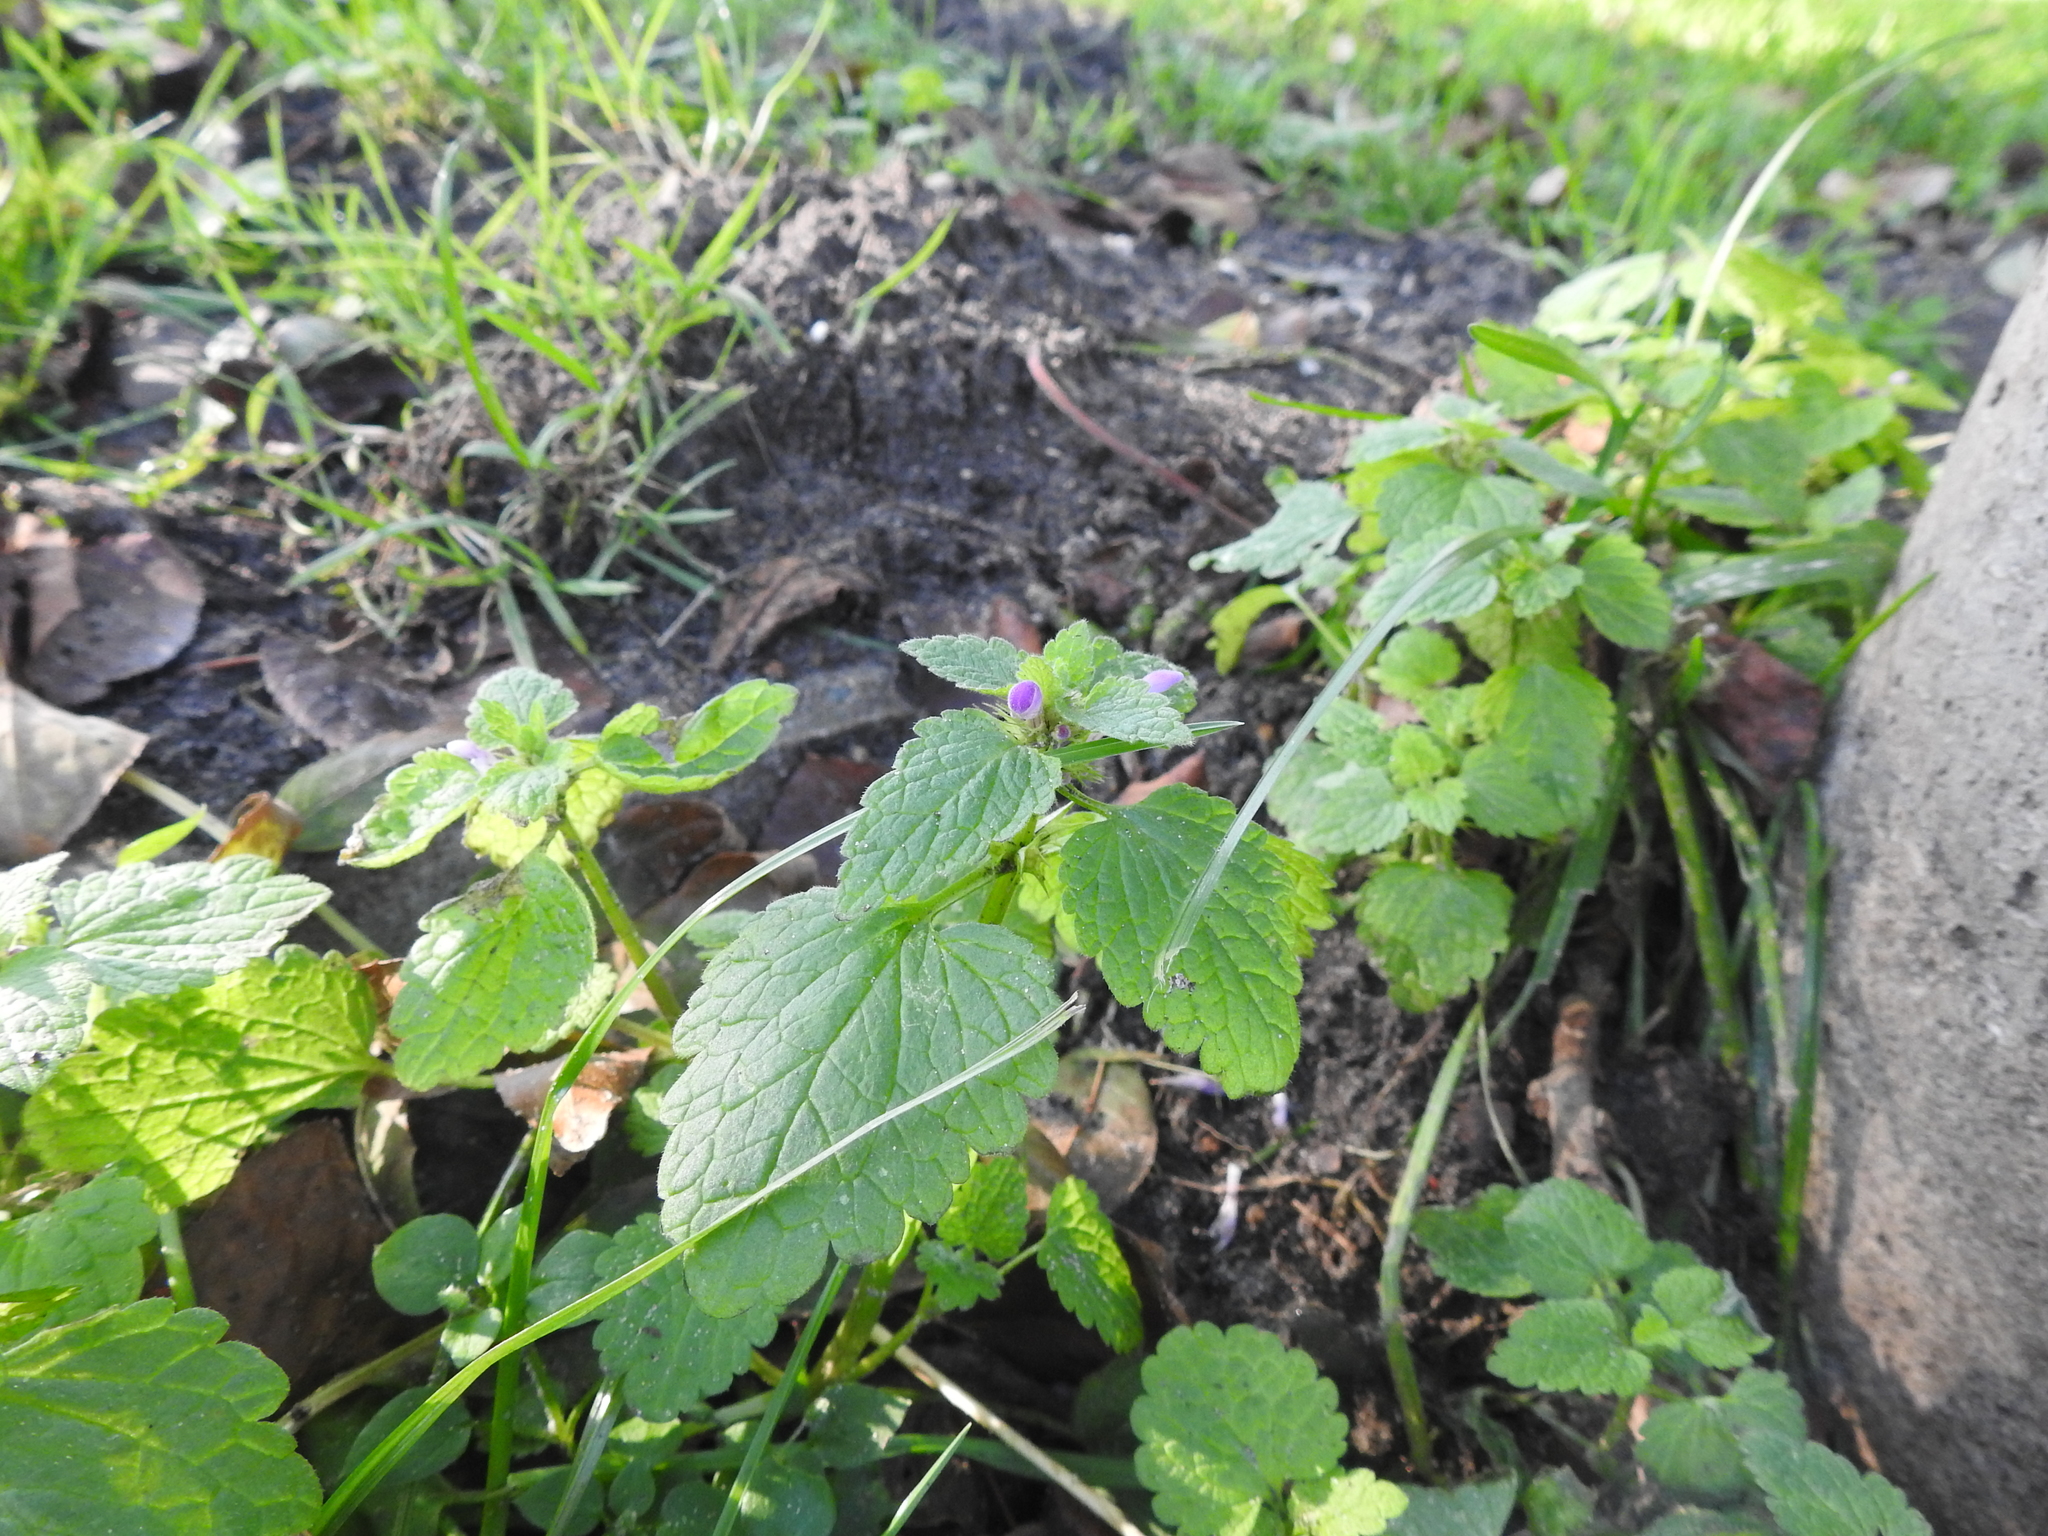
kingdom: Plantae
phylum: Tracheophyta
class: Magnoliopsida
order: Lamiales
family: Lamiaceae
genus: Lamium
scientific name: Lamium purpureum
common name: Red dead-nettle
